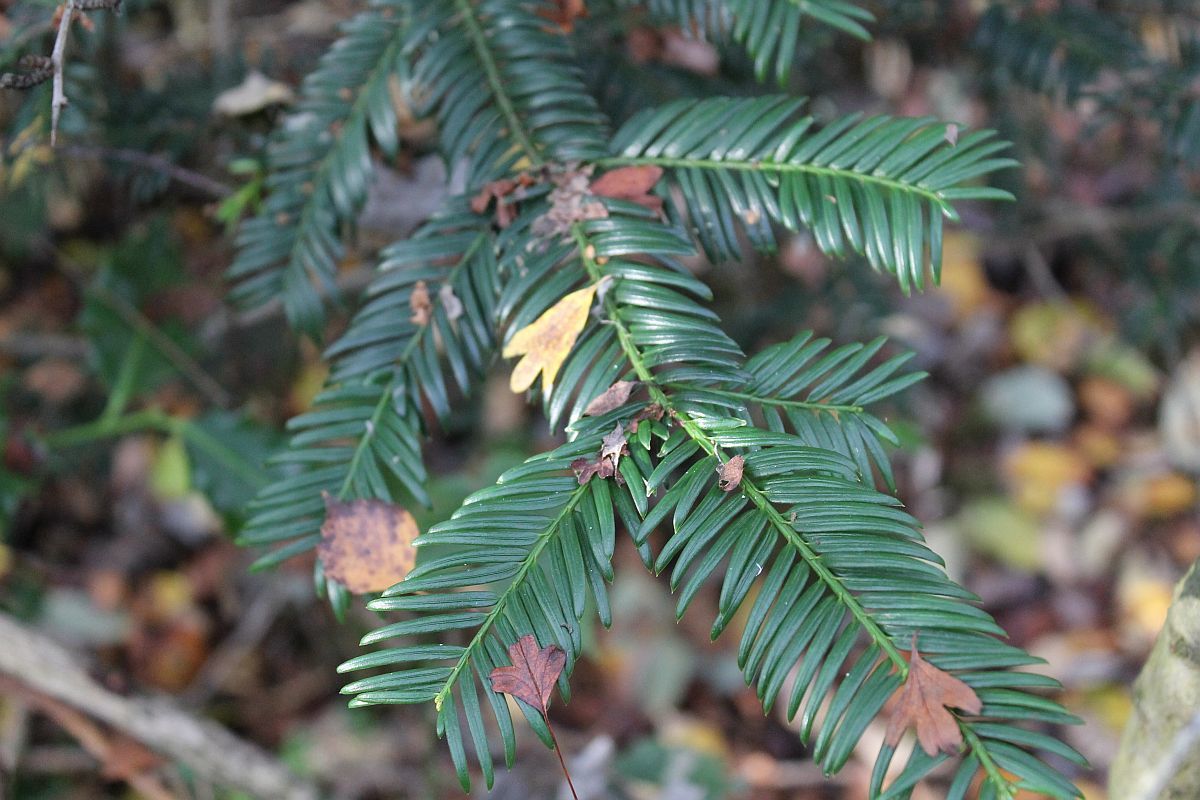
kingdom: Plantae
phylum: Tracheophyta
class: Pinopsida
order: Pinales
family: Taxaceae
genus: Taxus
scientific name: Taxus baccata
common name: Yew
